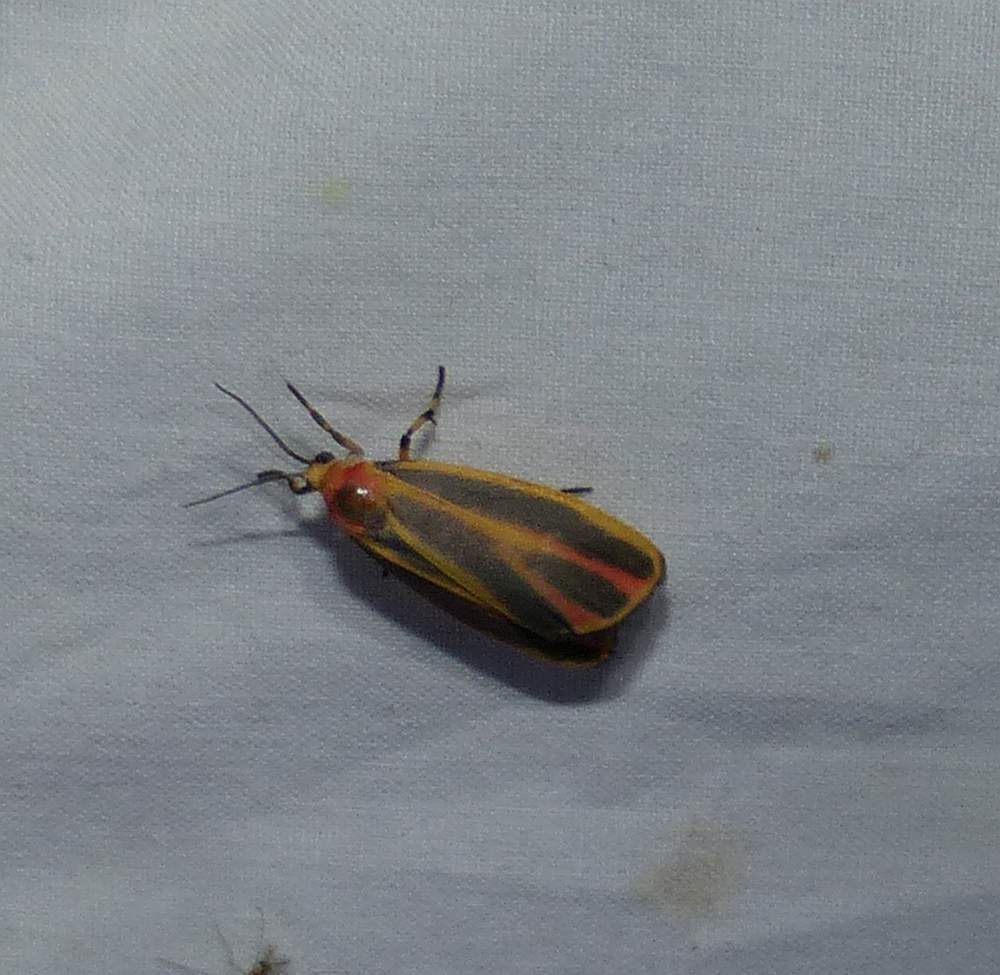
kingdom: Animalia
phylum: Arthropoda
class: Insecta
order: Lepidoptera
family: Erebidae
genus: Hypoprepia
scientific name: Hypoprepia fucosa
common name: Painted lichen moth
